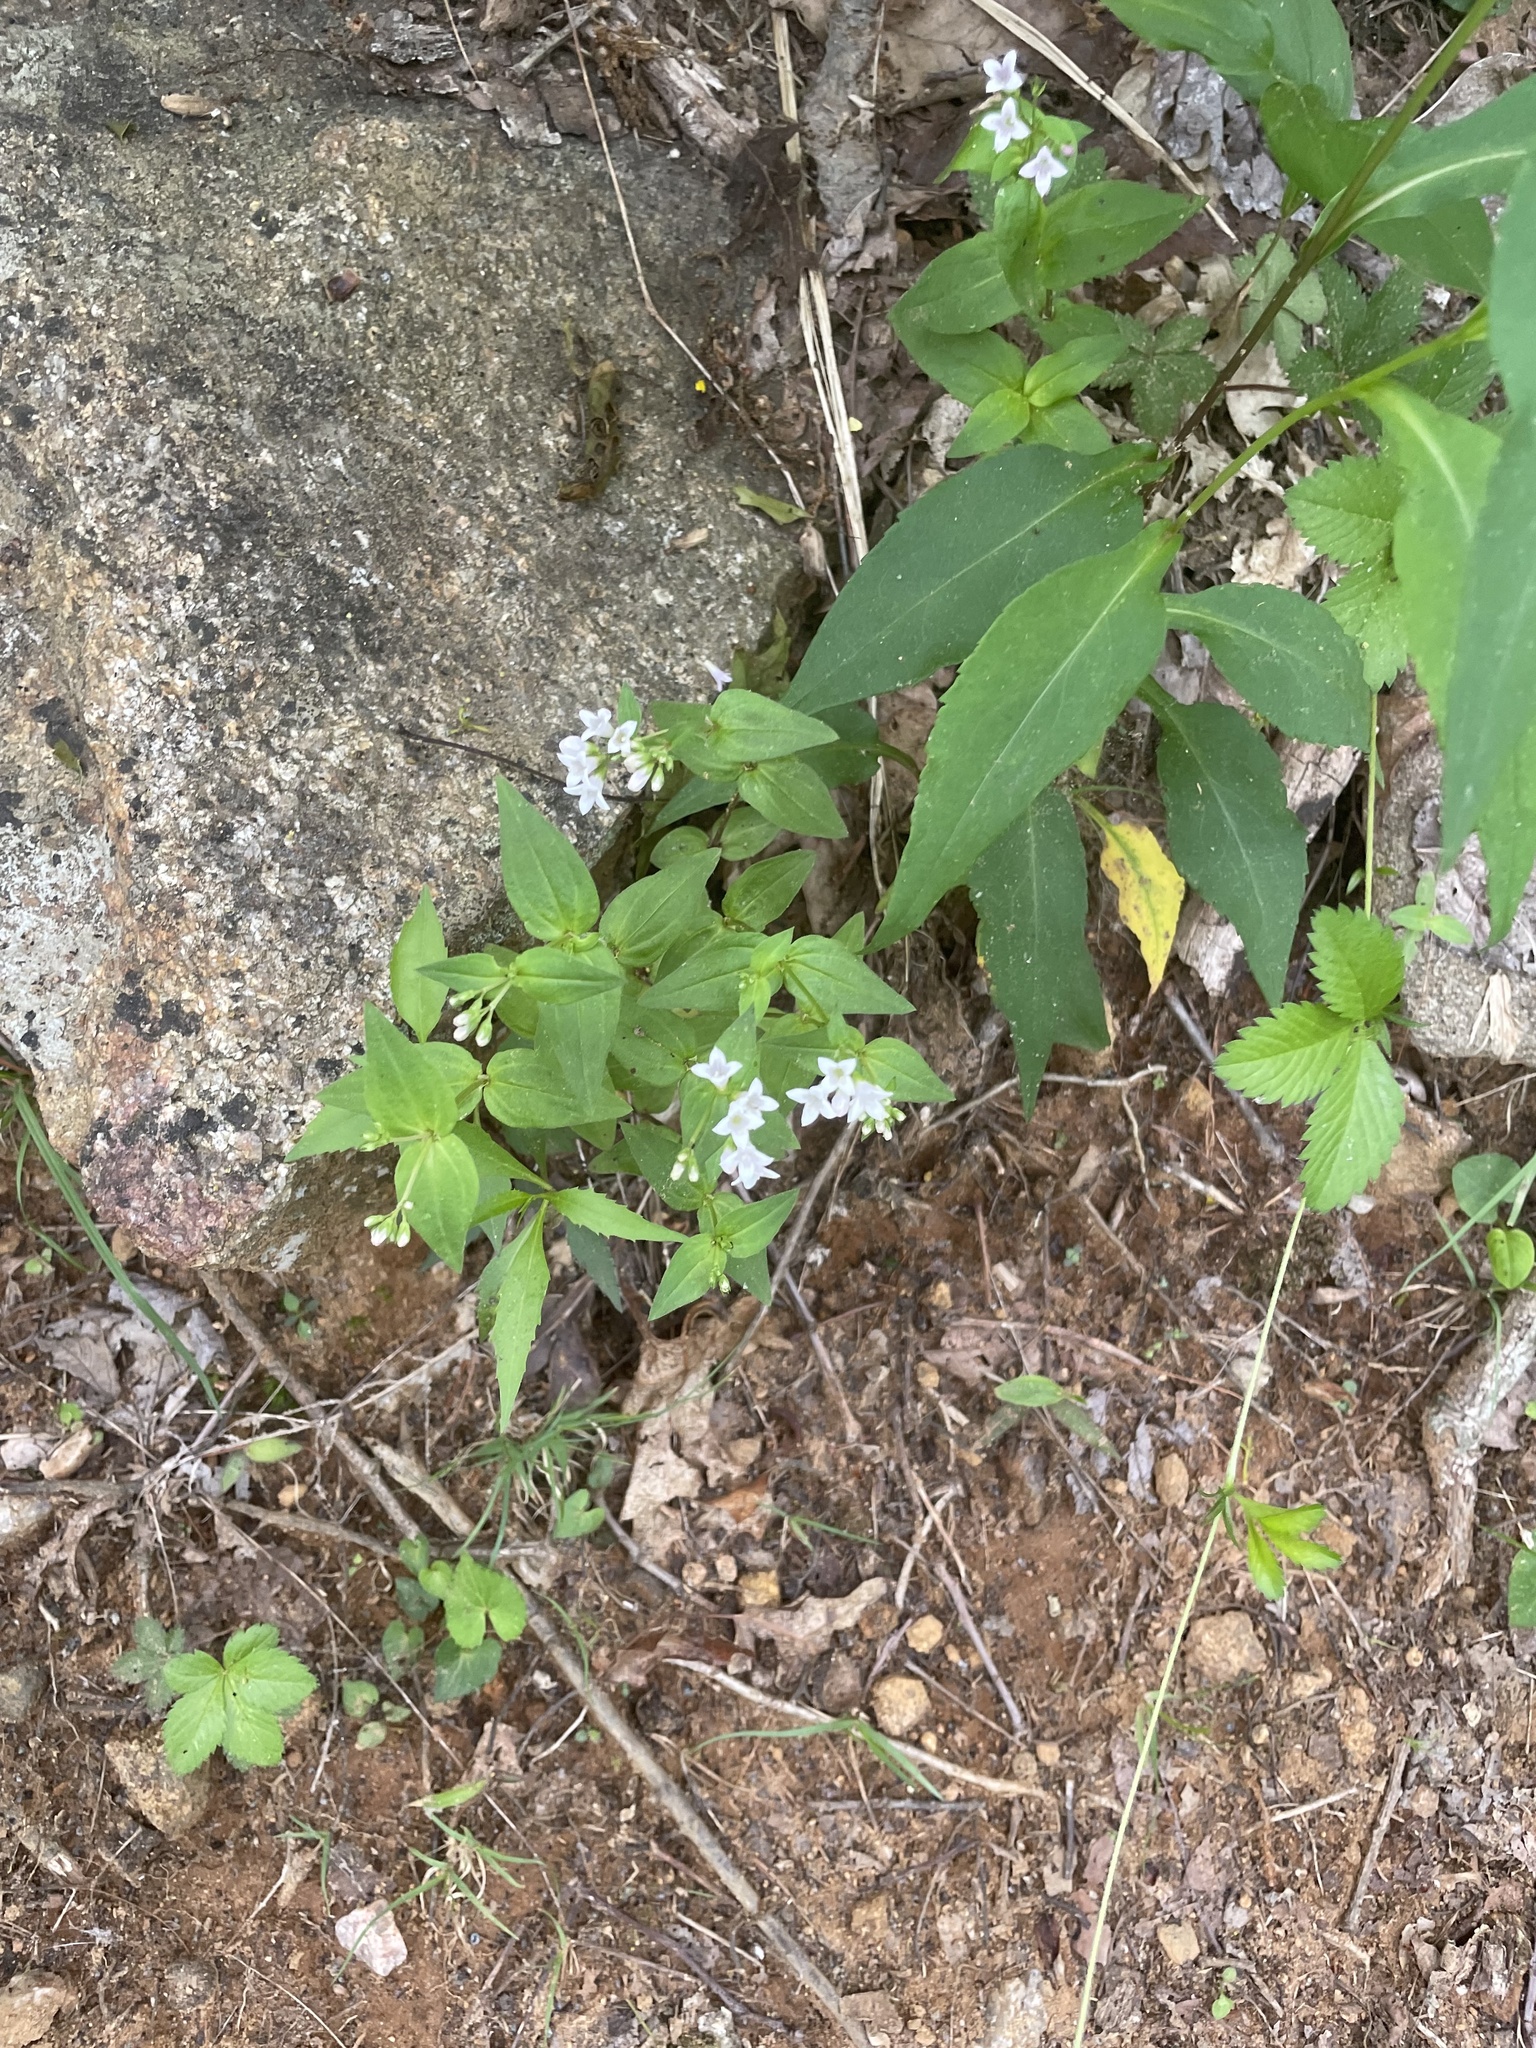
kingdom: Plantae
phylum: Tracheophyta
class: Magnoliopsida
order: Gentianales
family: Rubiaceae
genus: Houstonia
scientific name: Houstonia purpurea
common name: Summer bluet
